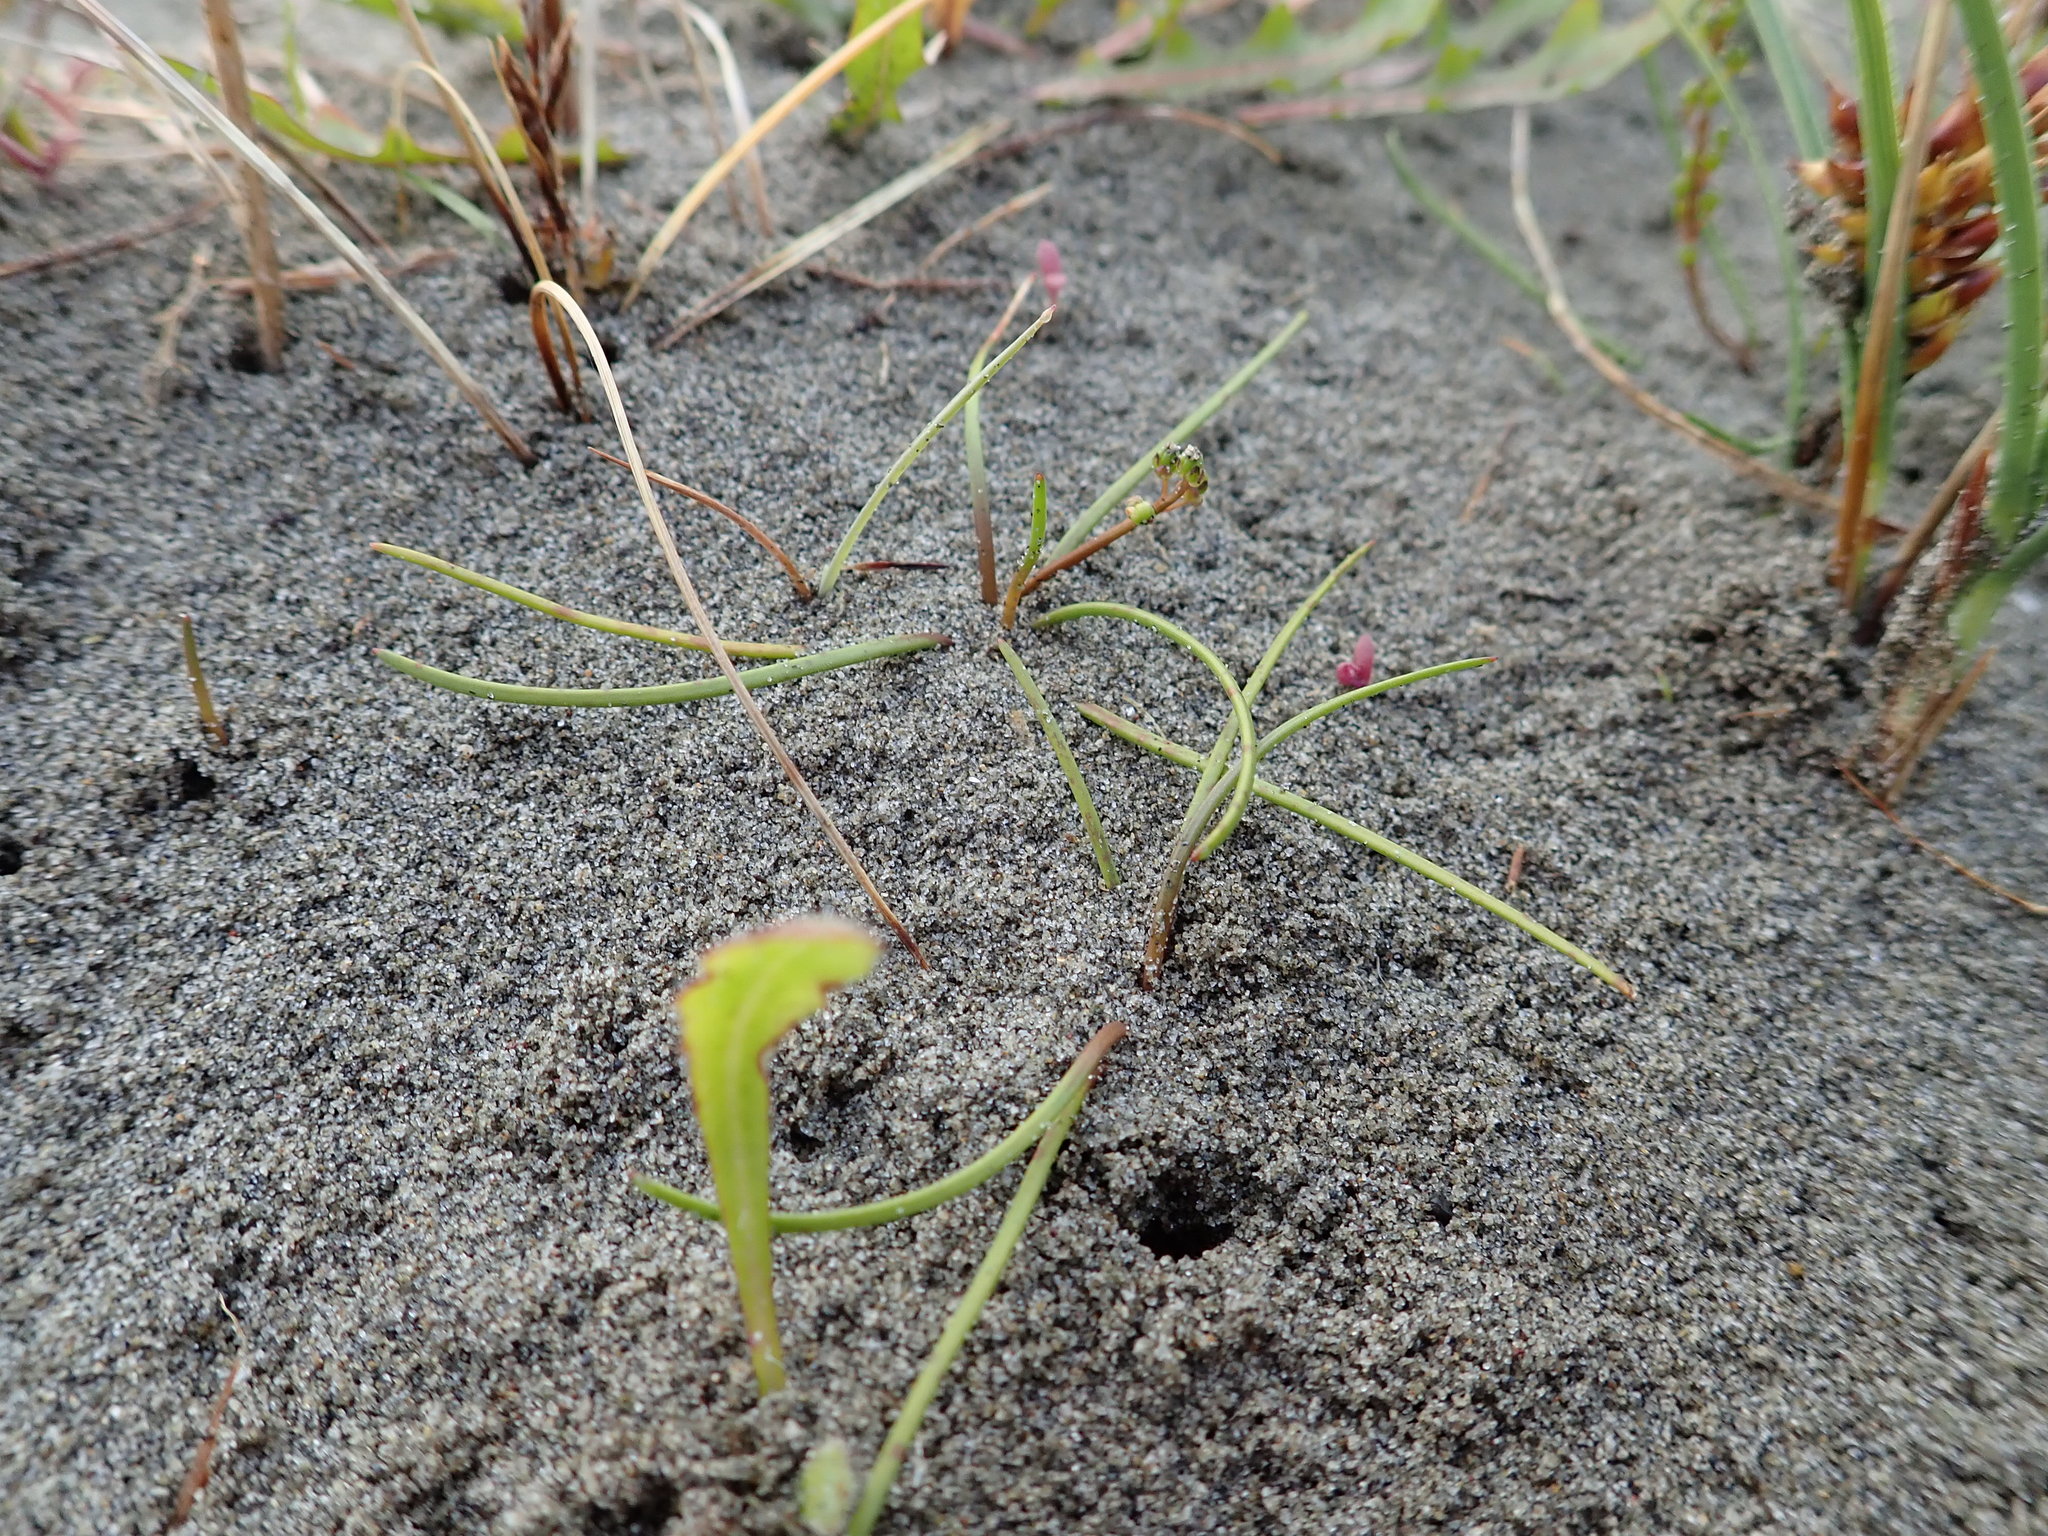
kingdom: Plantae
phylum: Tracheophyta
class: Liliopsida
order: Alismatales
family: Juncaginaceae
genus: Triglochin
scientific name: Triglochin striata
